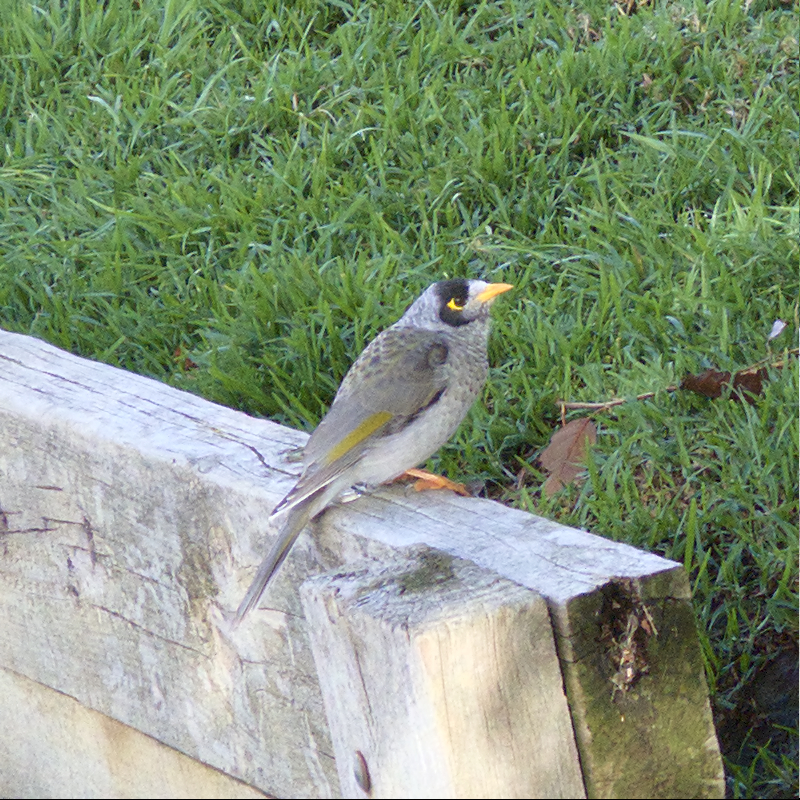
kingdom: Animalia
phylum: Chordata
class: Aves
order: Passeriformes
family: Meliphagidae
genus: Manorina
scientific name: Manorina melanocephala
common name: Noisy miner
